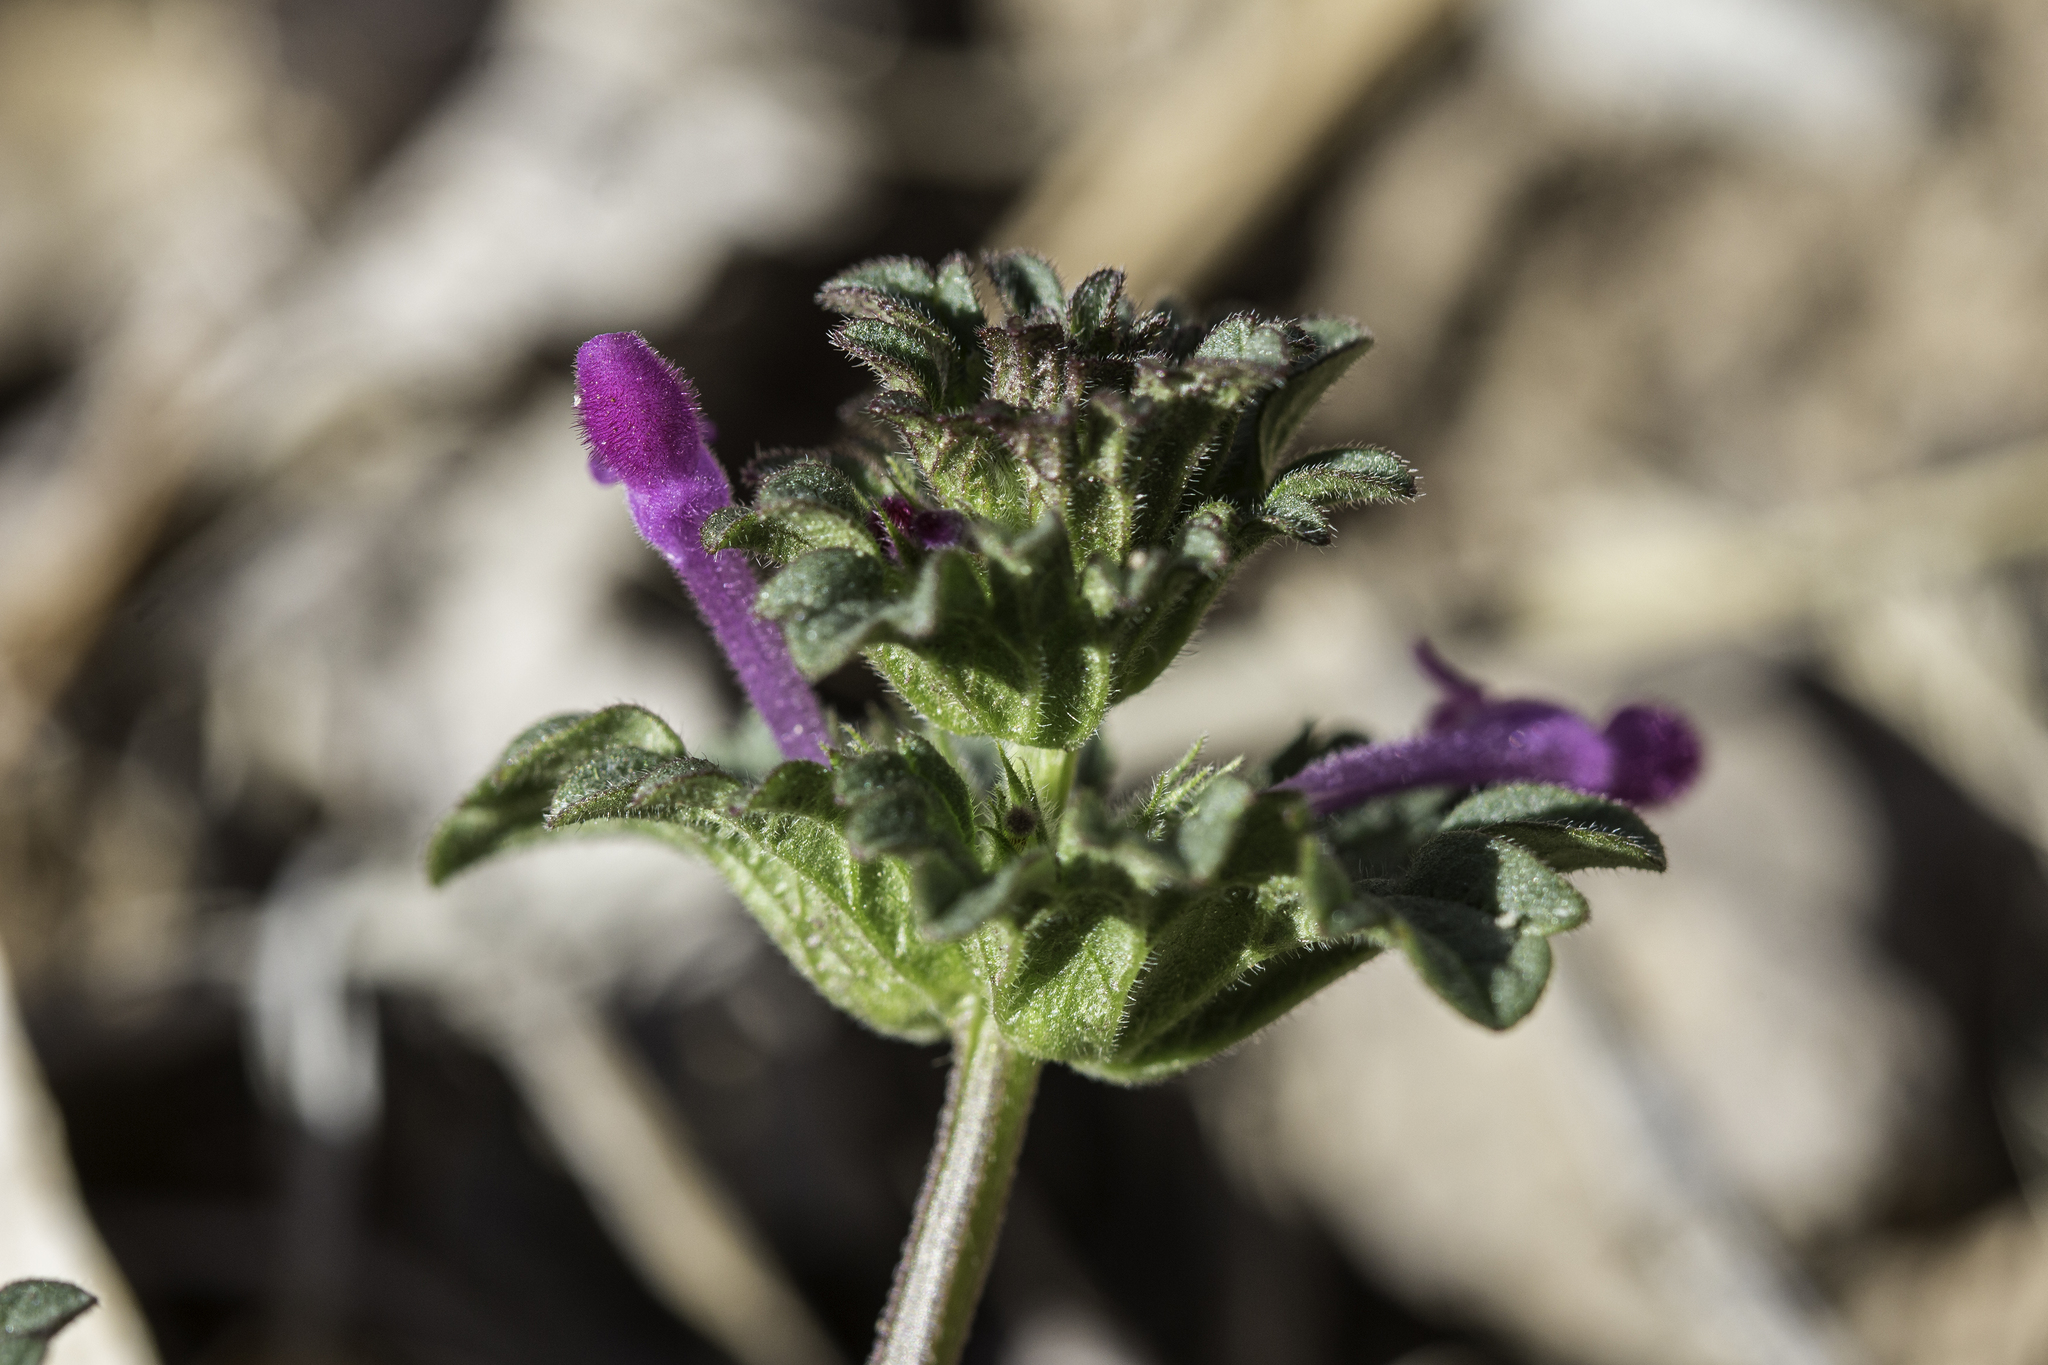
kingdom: Plantae
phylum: Tracheophyta
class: Magnoliopsida
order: Lamiales
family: Lamiaceae
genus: Lamium
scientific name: Lamium amplexicaule
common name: Henbit dead-nettle
